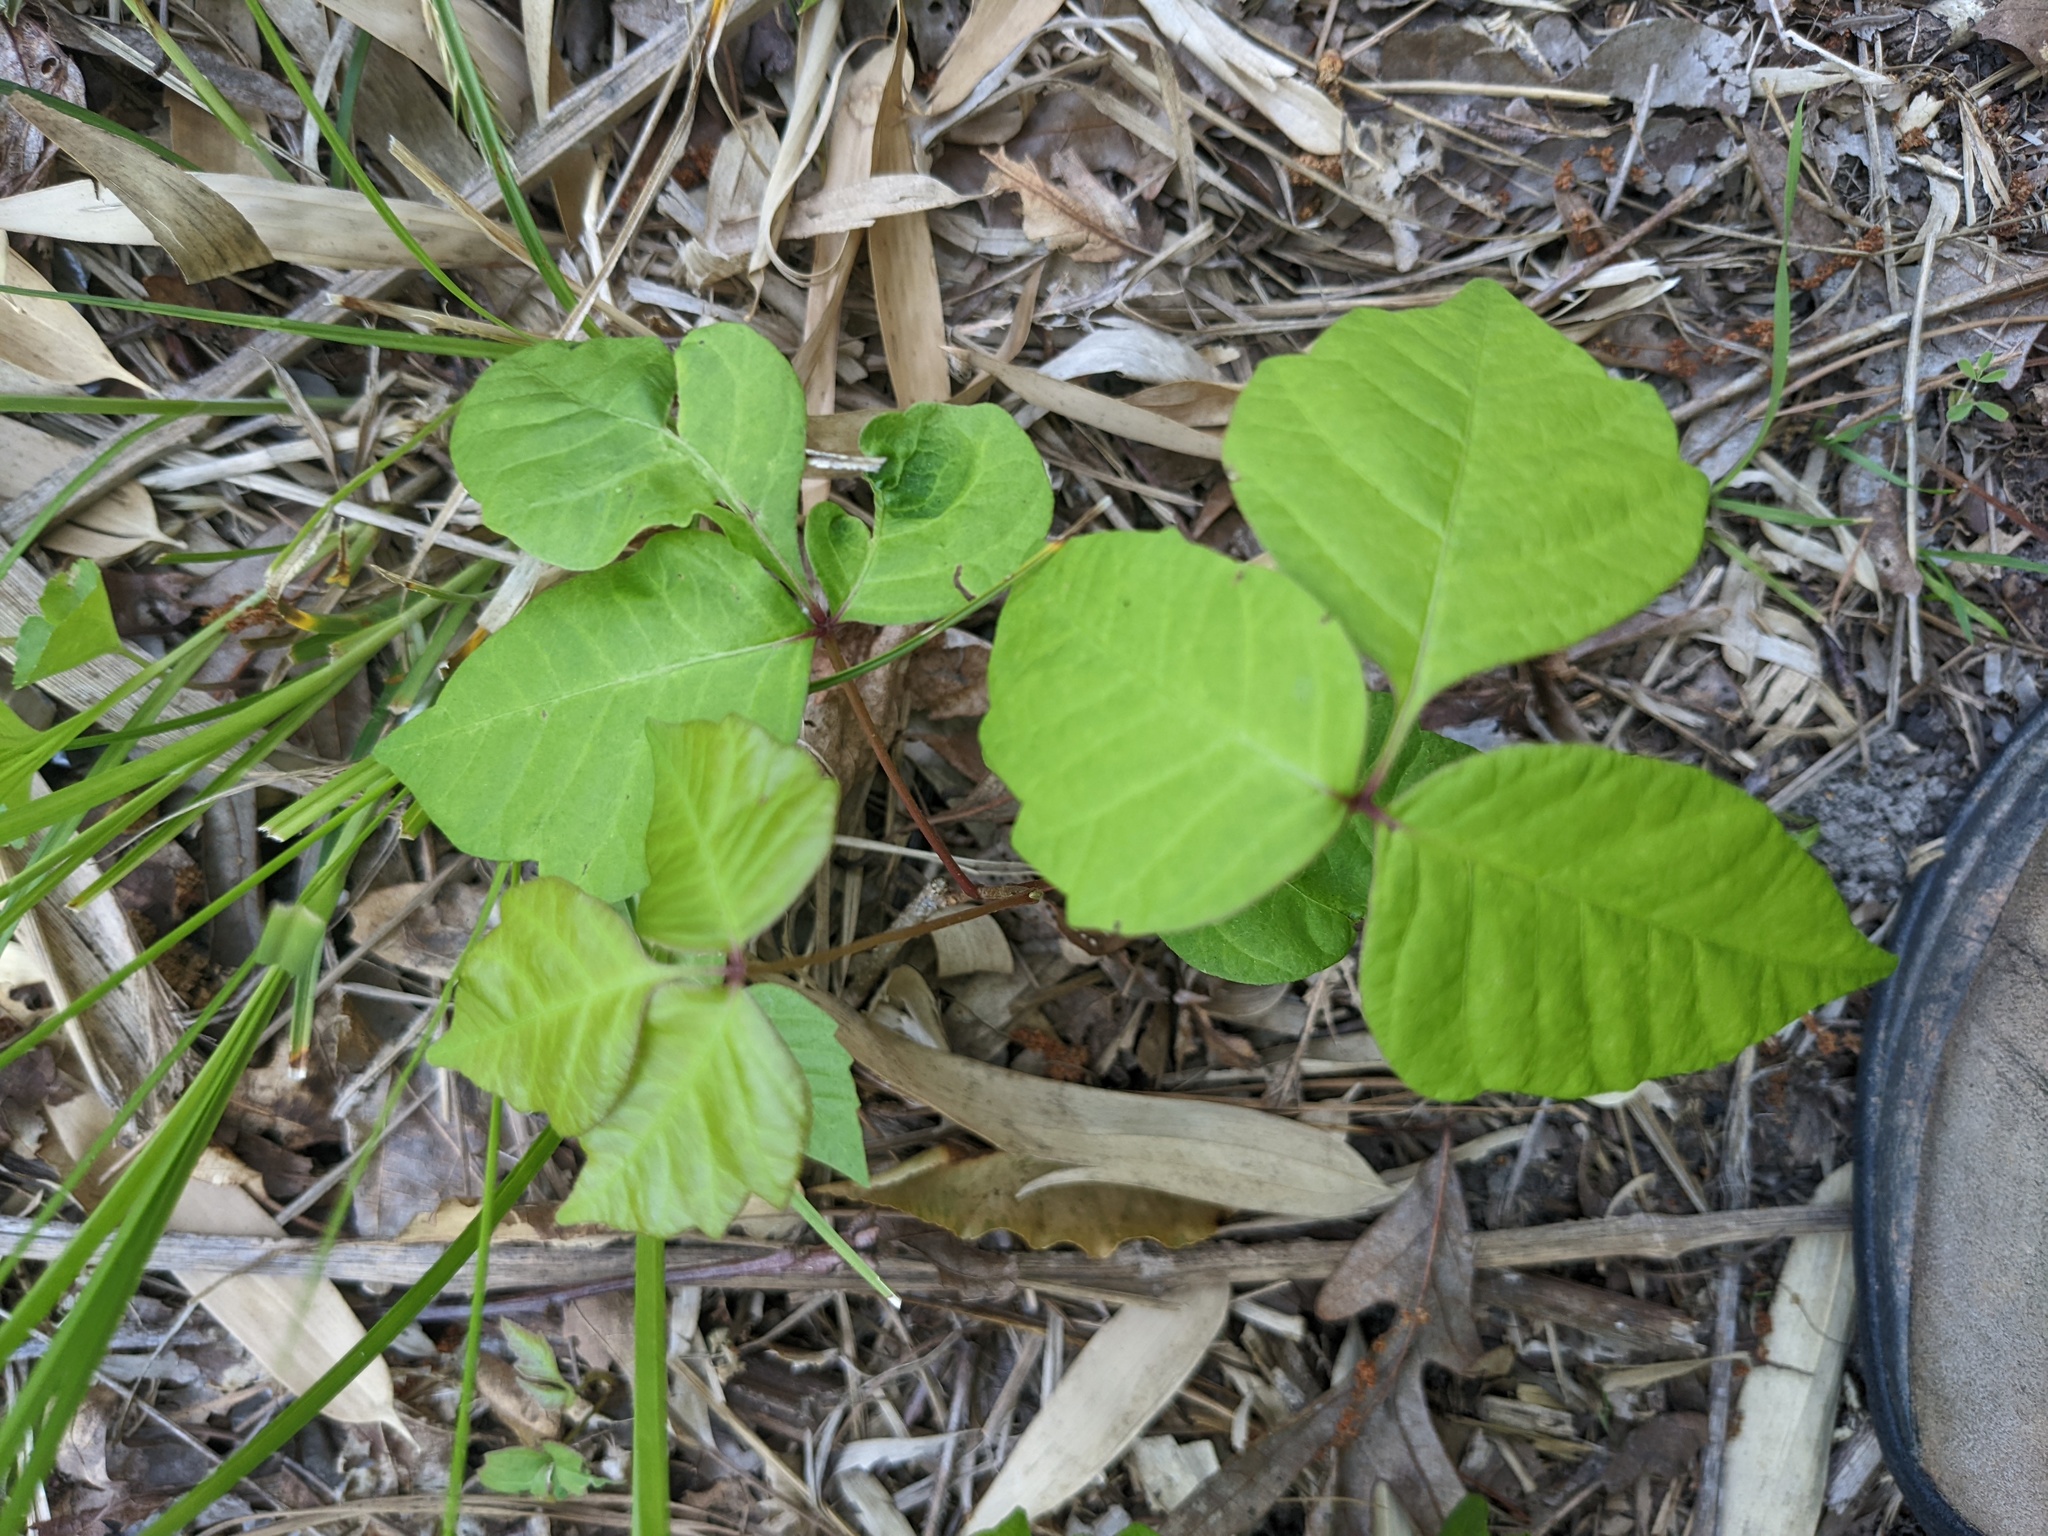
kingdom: Plantae
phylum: Tracheophyta
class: Magnoliopsida
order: Sapindales
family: Anacardiaceae
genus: Toxicodendron
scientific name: Toxicodendron radicans
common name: Poison ivy
